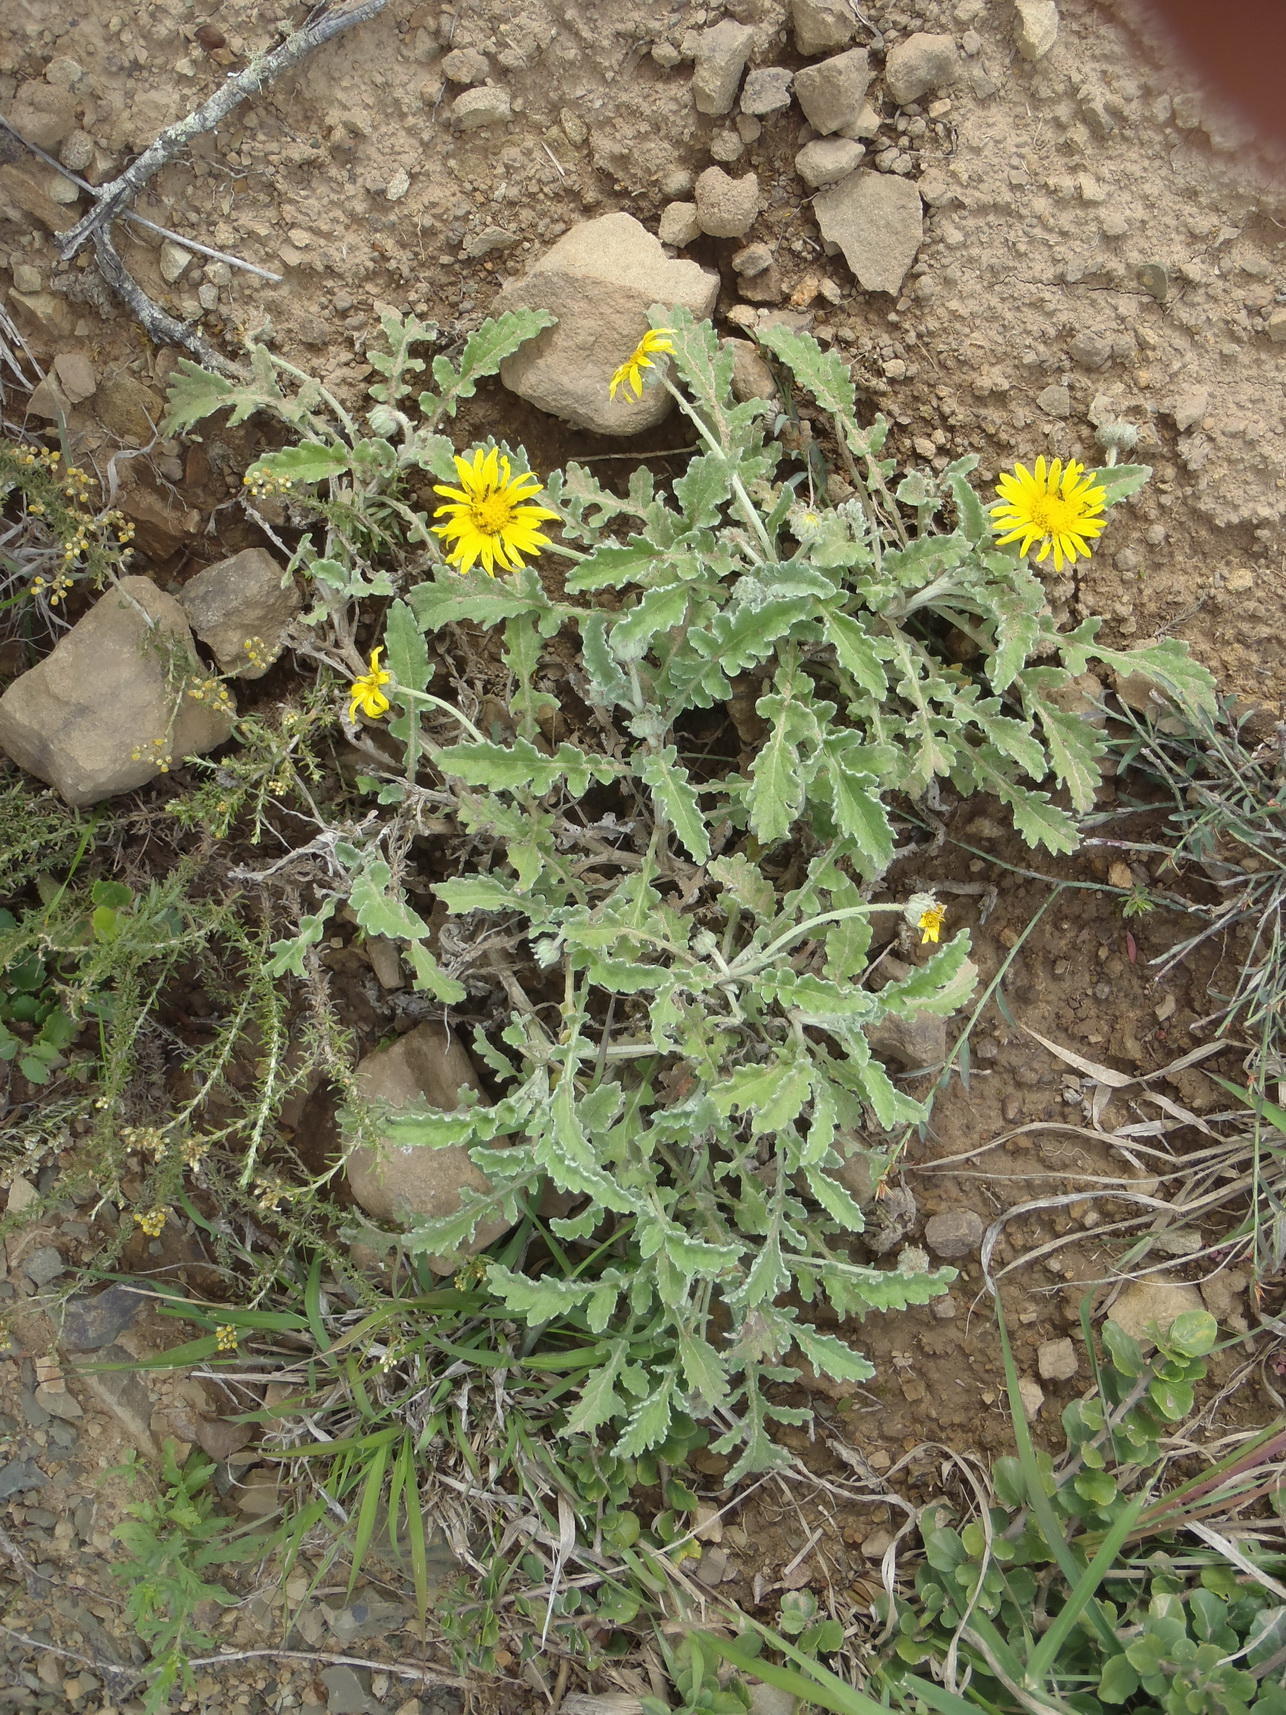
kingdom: Plantae
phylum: Tracheophyta
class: Magnoliopsida
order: Asterales
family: Asteraceae
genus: Arctotis
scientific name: Arctotis arctotoides
